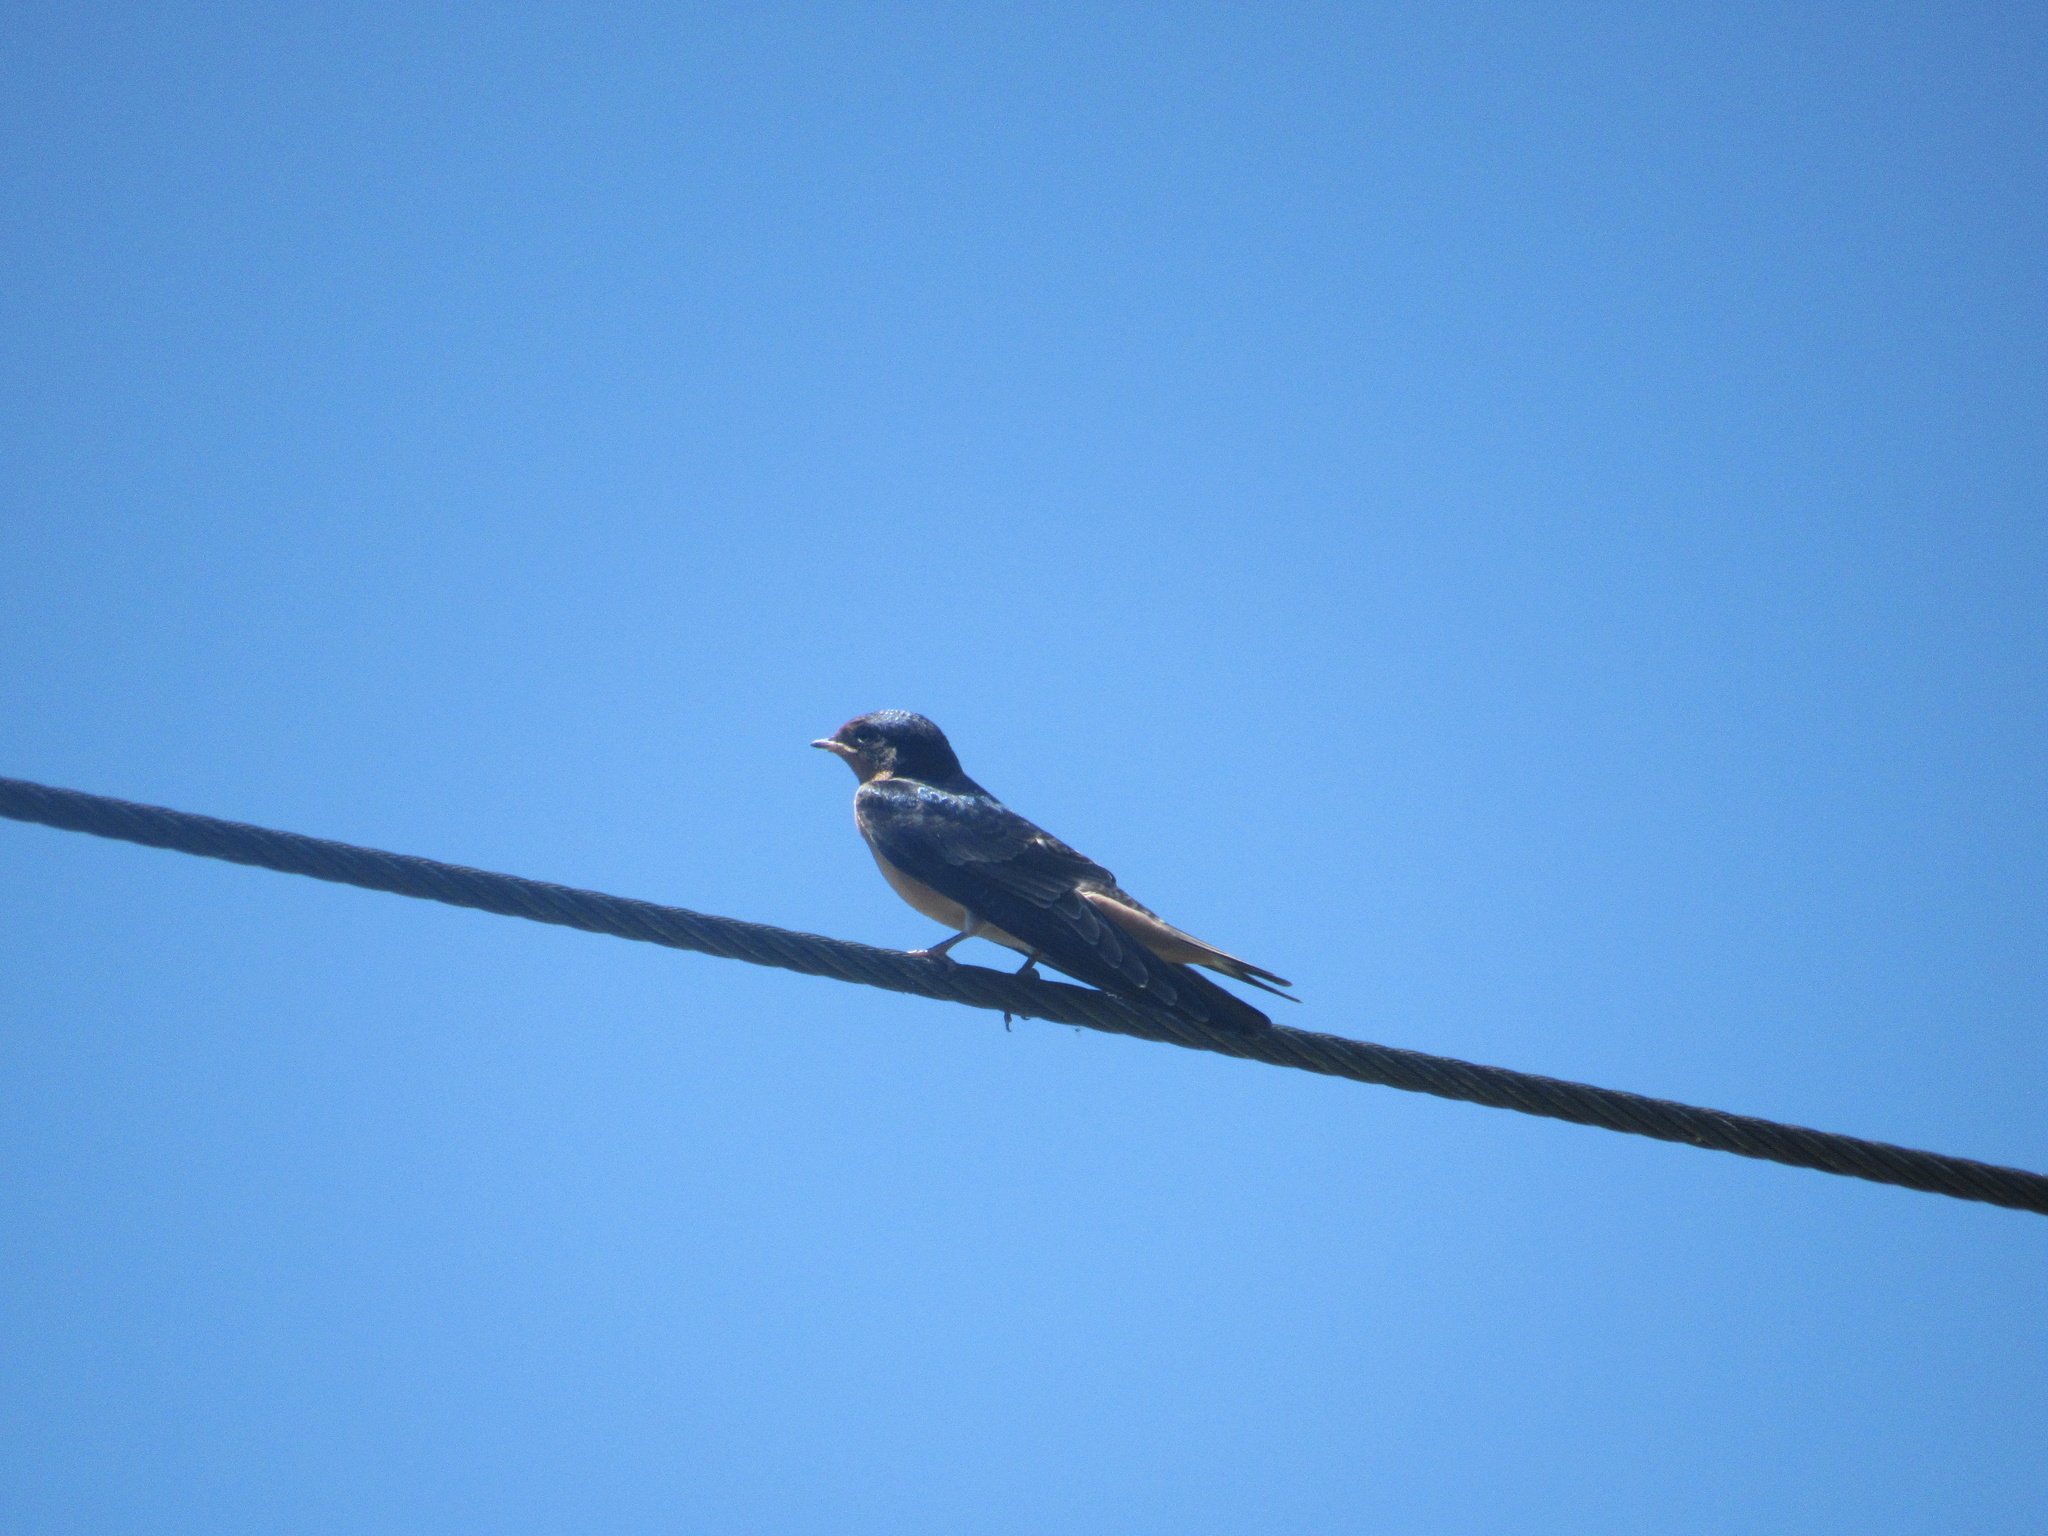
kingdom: Animalia
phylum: Chordata
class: Aves
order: Passeriformes
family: Hirundinidae
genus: Hirundo
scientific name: Hirundo rustica
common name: Barn swallow
